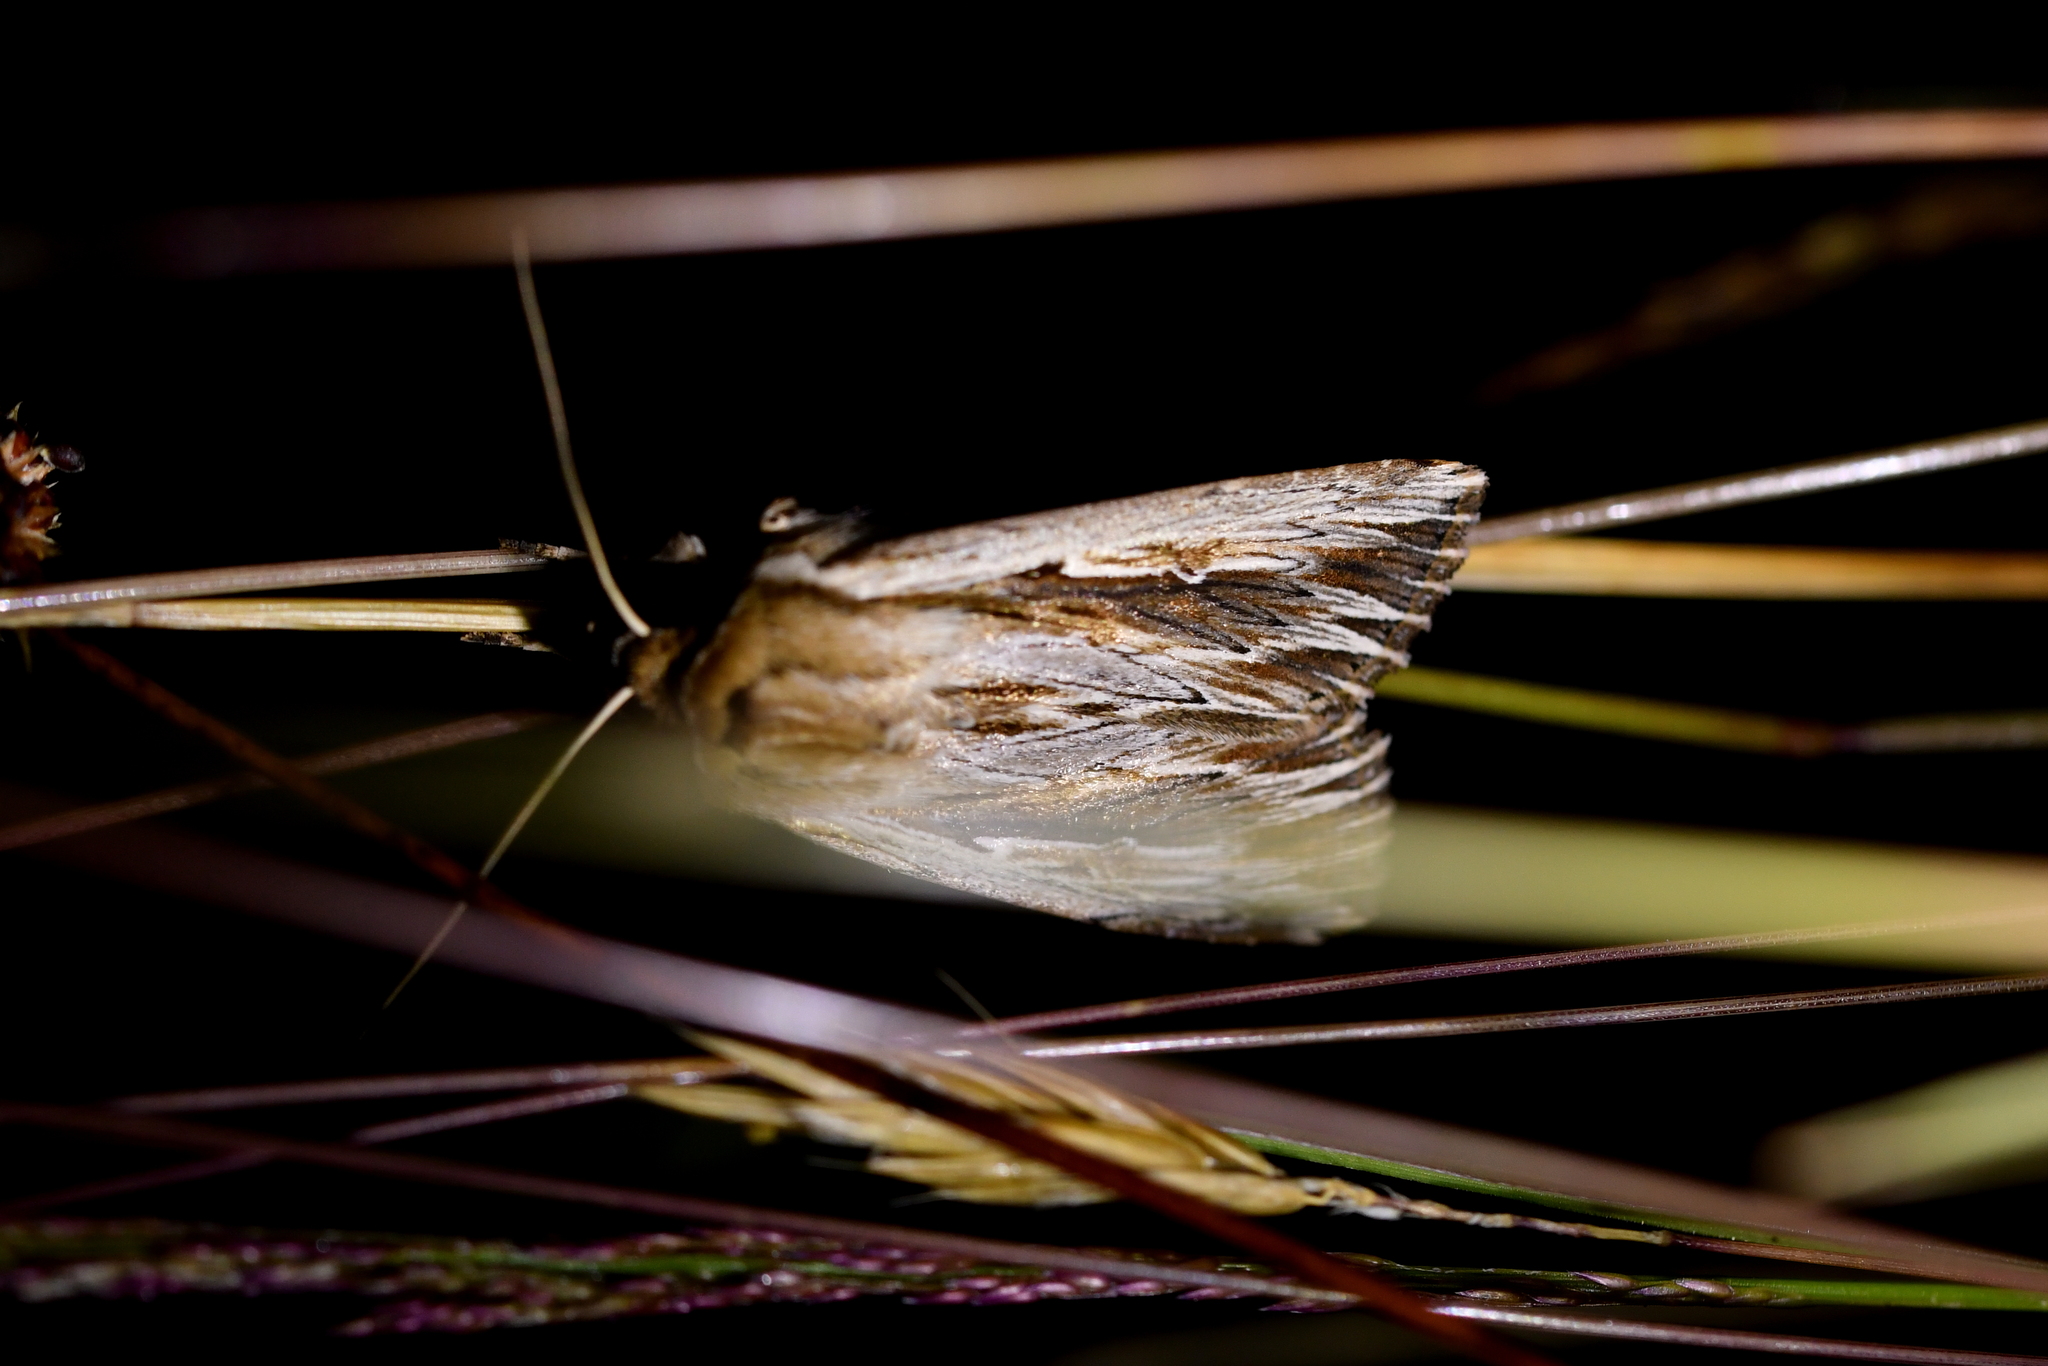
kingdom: Animalia
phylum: Arthropoda
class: Insecta
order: Lepidoptera
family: Noctuidae
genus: Persectania
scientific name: Persectania aversa
